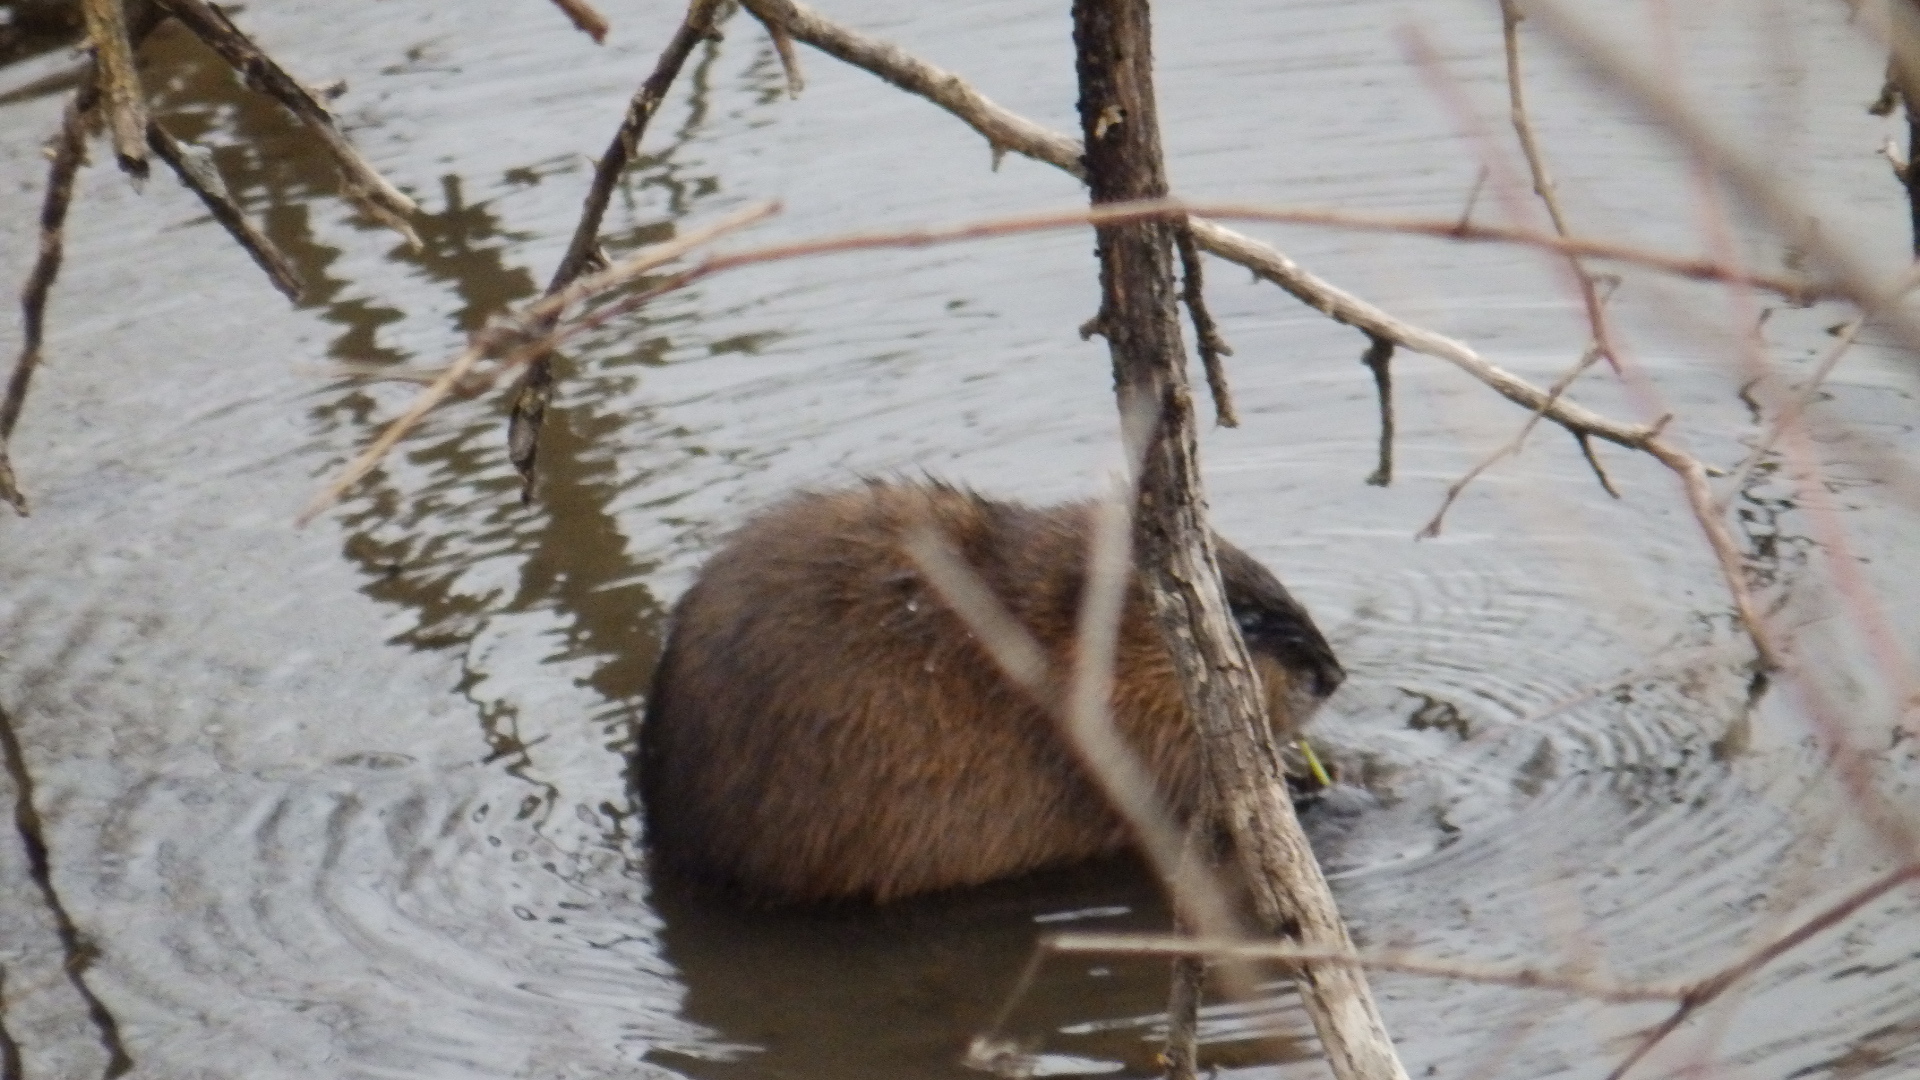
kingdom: Animalia
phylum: Chordata
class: Mammalia
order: Rodentia
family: Cricetidae
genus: Ondatra
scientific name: Ondatra zibethicus
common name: Muskrat
